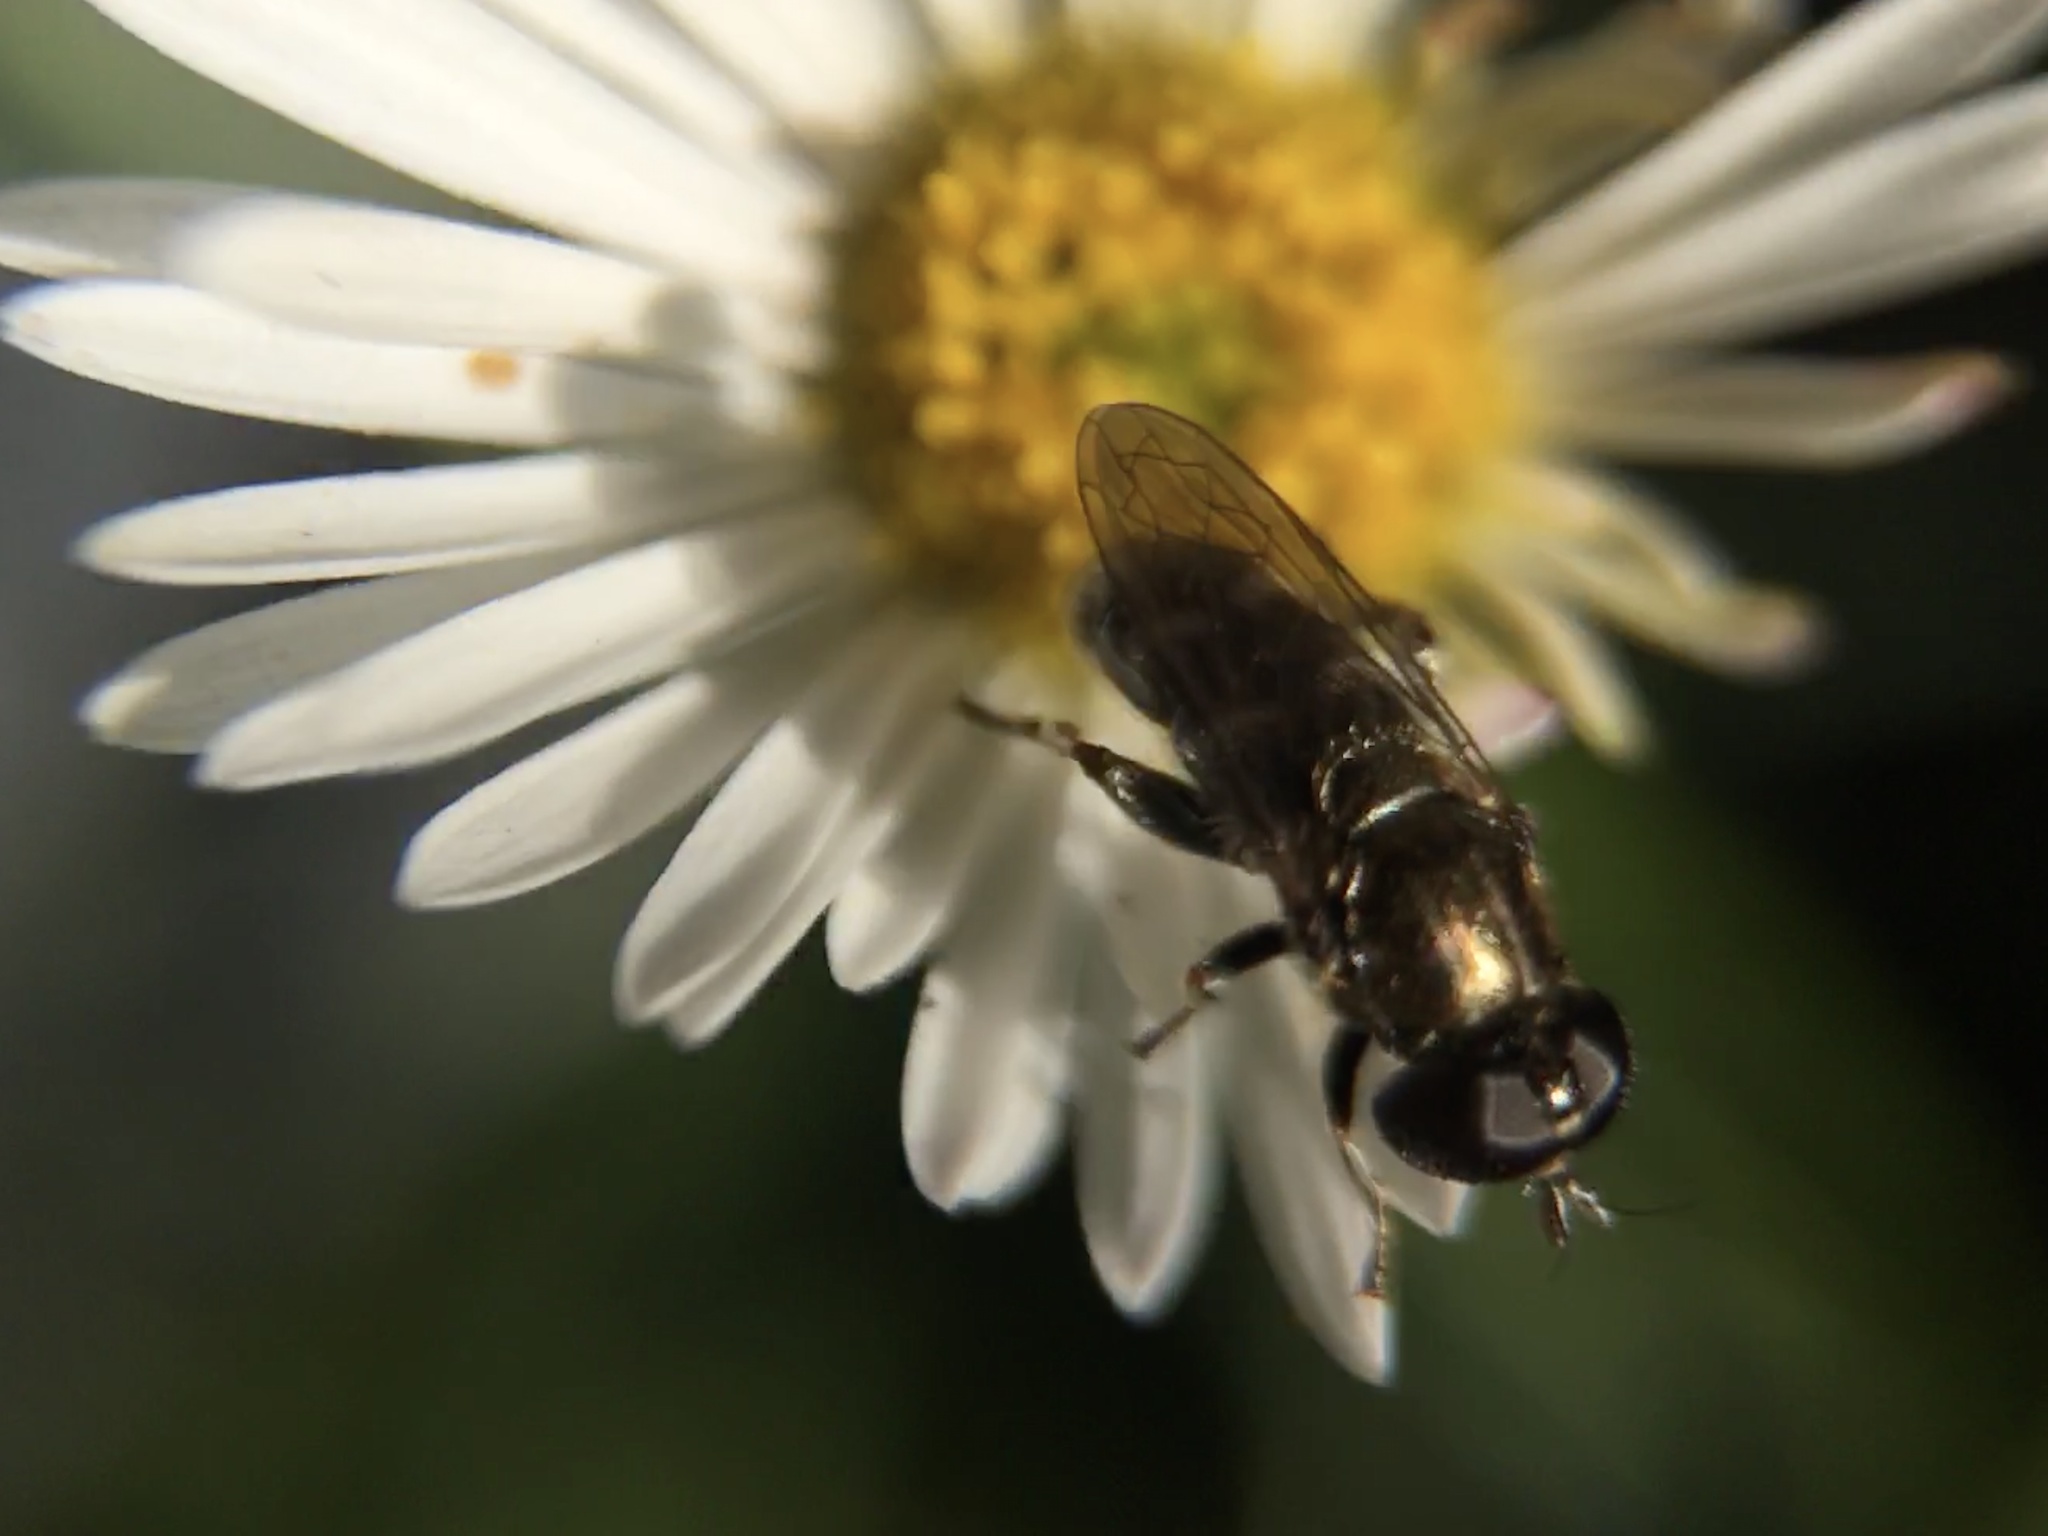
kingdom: Animalia
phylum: Arthropoda
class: Insecta
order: Diptera
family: Syrphidae
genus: Eumerus
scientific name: Eumerus
